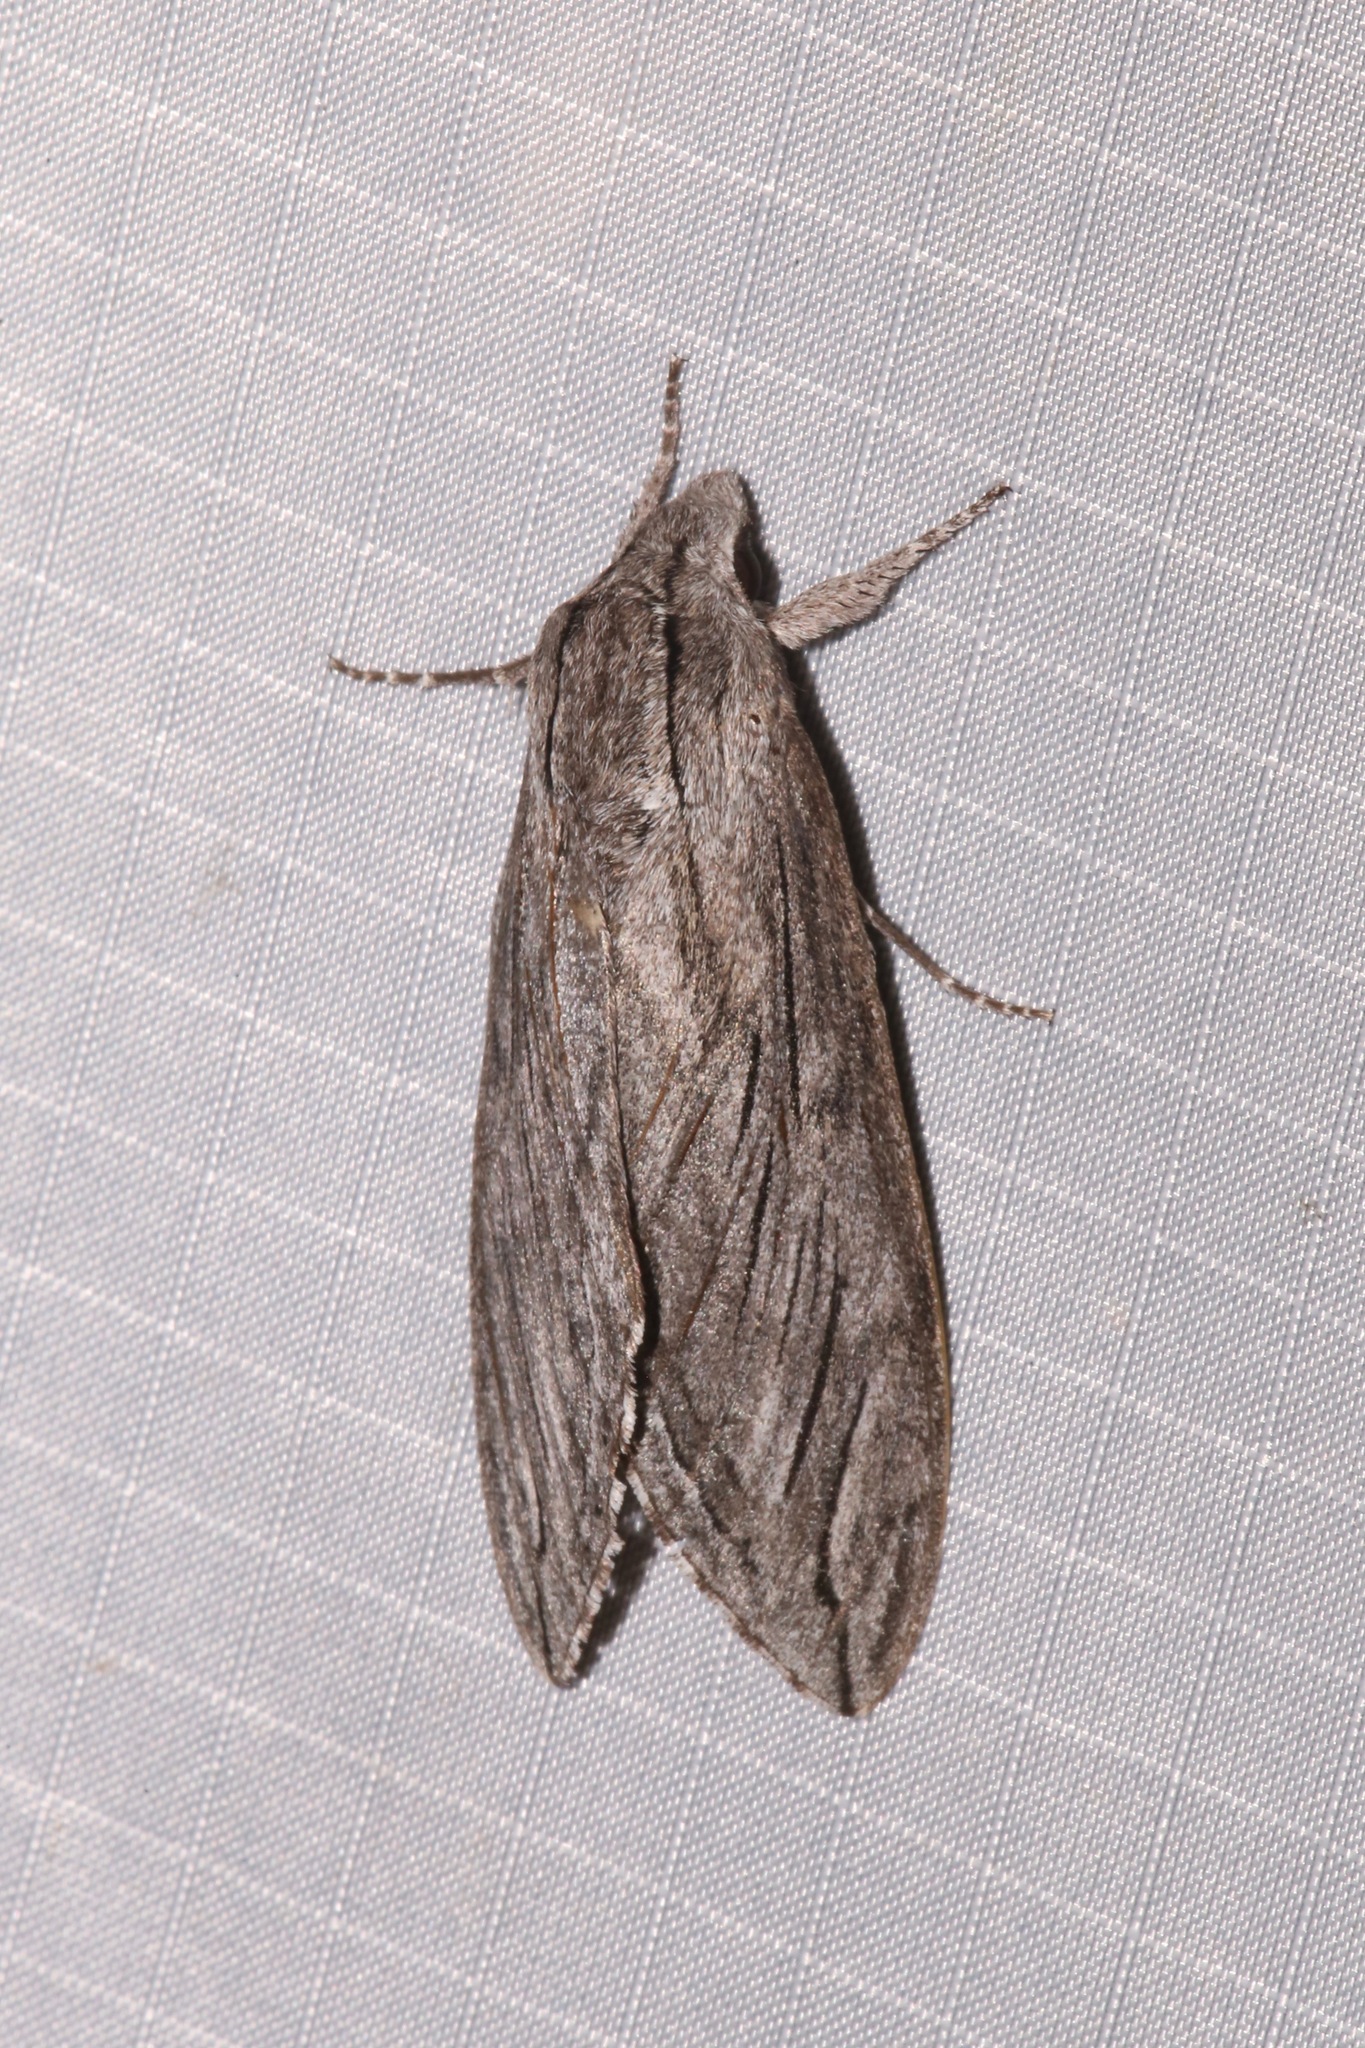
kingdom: Animalia
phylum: Arthropoda
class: Insecta
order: Lepidoptera
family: Sphingidae
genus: Sphinx
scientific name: Sphinx chersis
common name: Great ash sphinx
